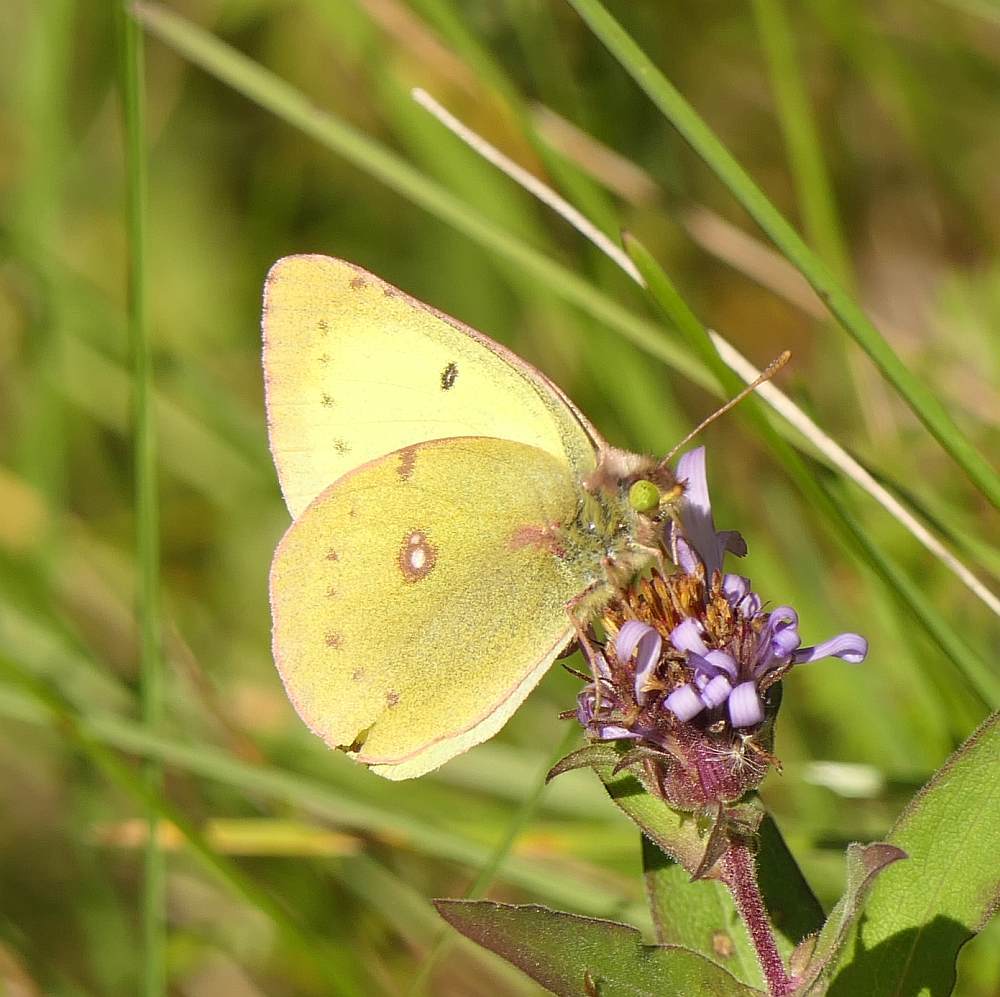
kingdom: Animalia
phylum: Arthropoda
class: Insecta
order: Lepidoptera
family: Pieridae
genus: Colias
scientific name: Colias philodice
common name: Clouded sulphur
